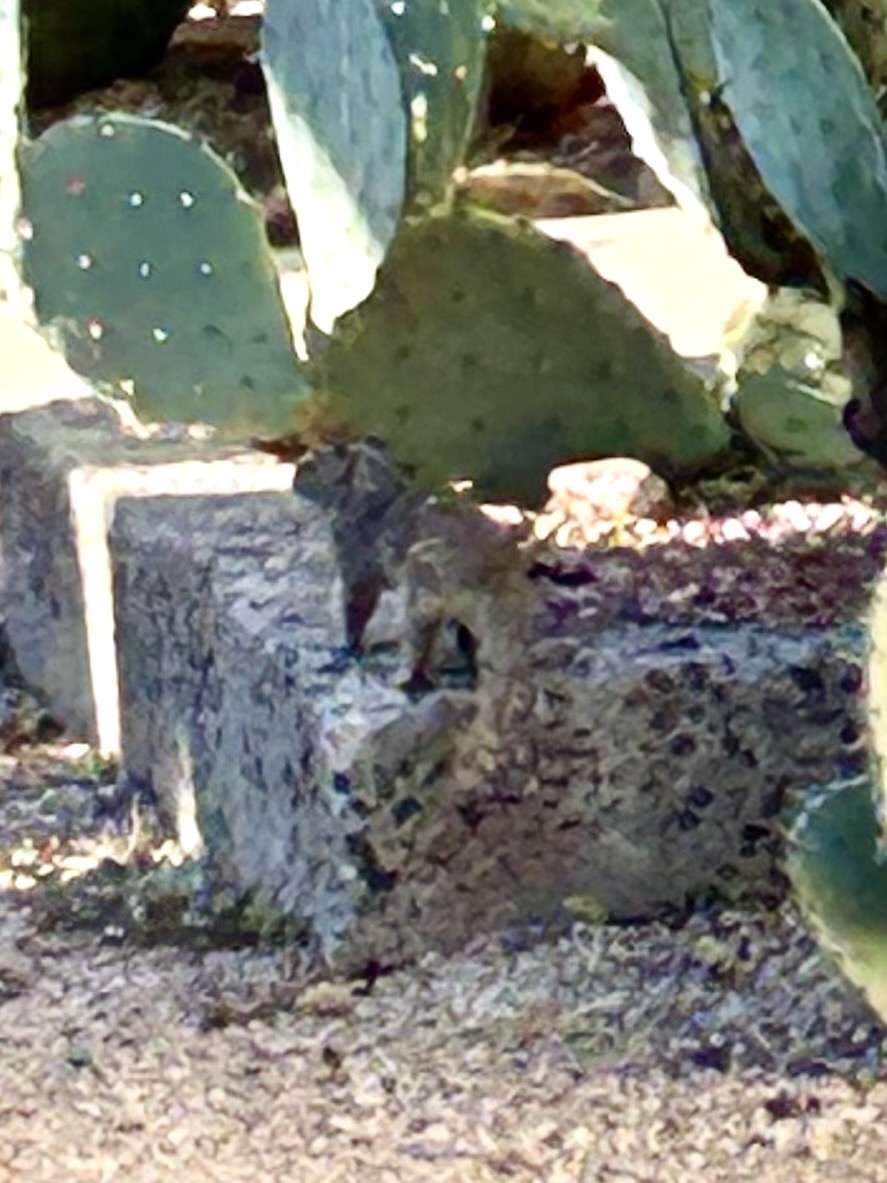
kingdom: Animalia
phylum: Chordata
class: Mammalia
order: Rodentia
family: Sciuridae
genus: Otospermophilus
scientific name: Otospermophilus variegatus
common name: Rock squirrel
